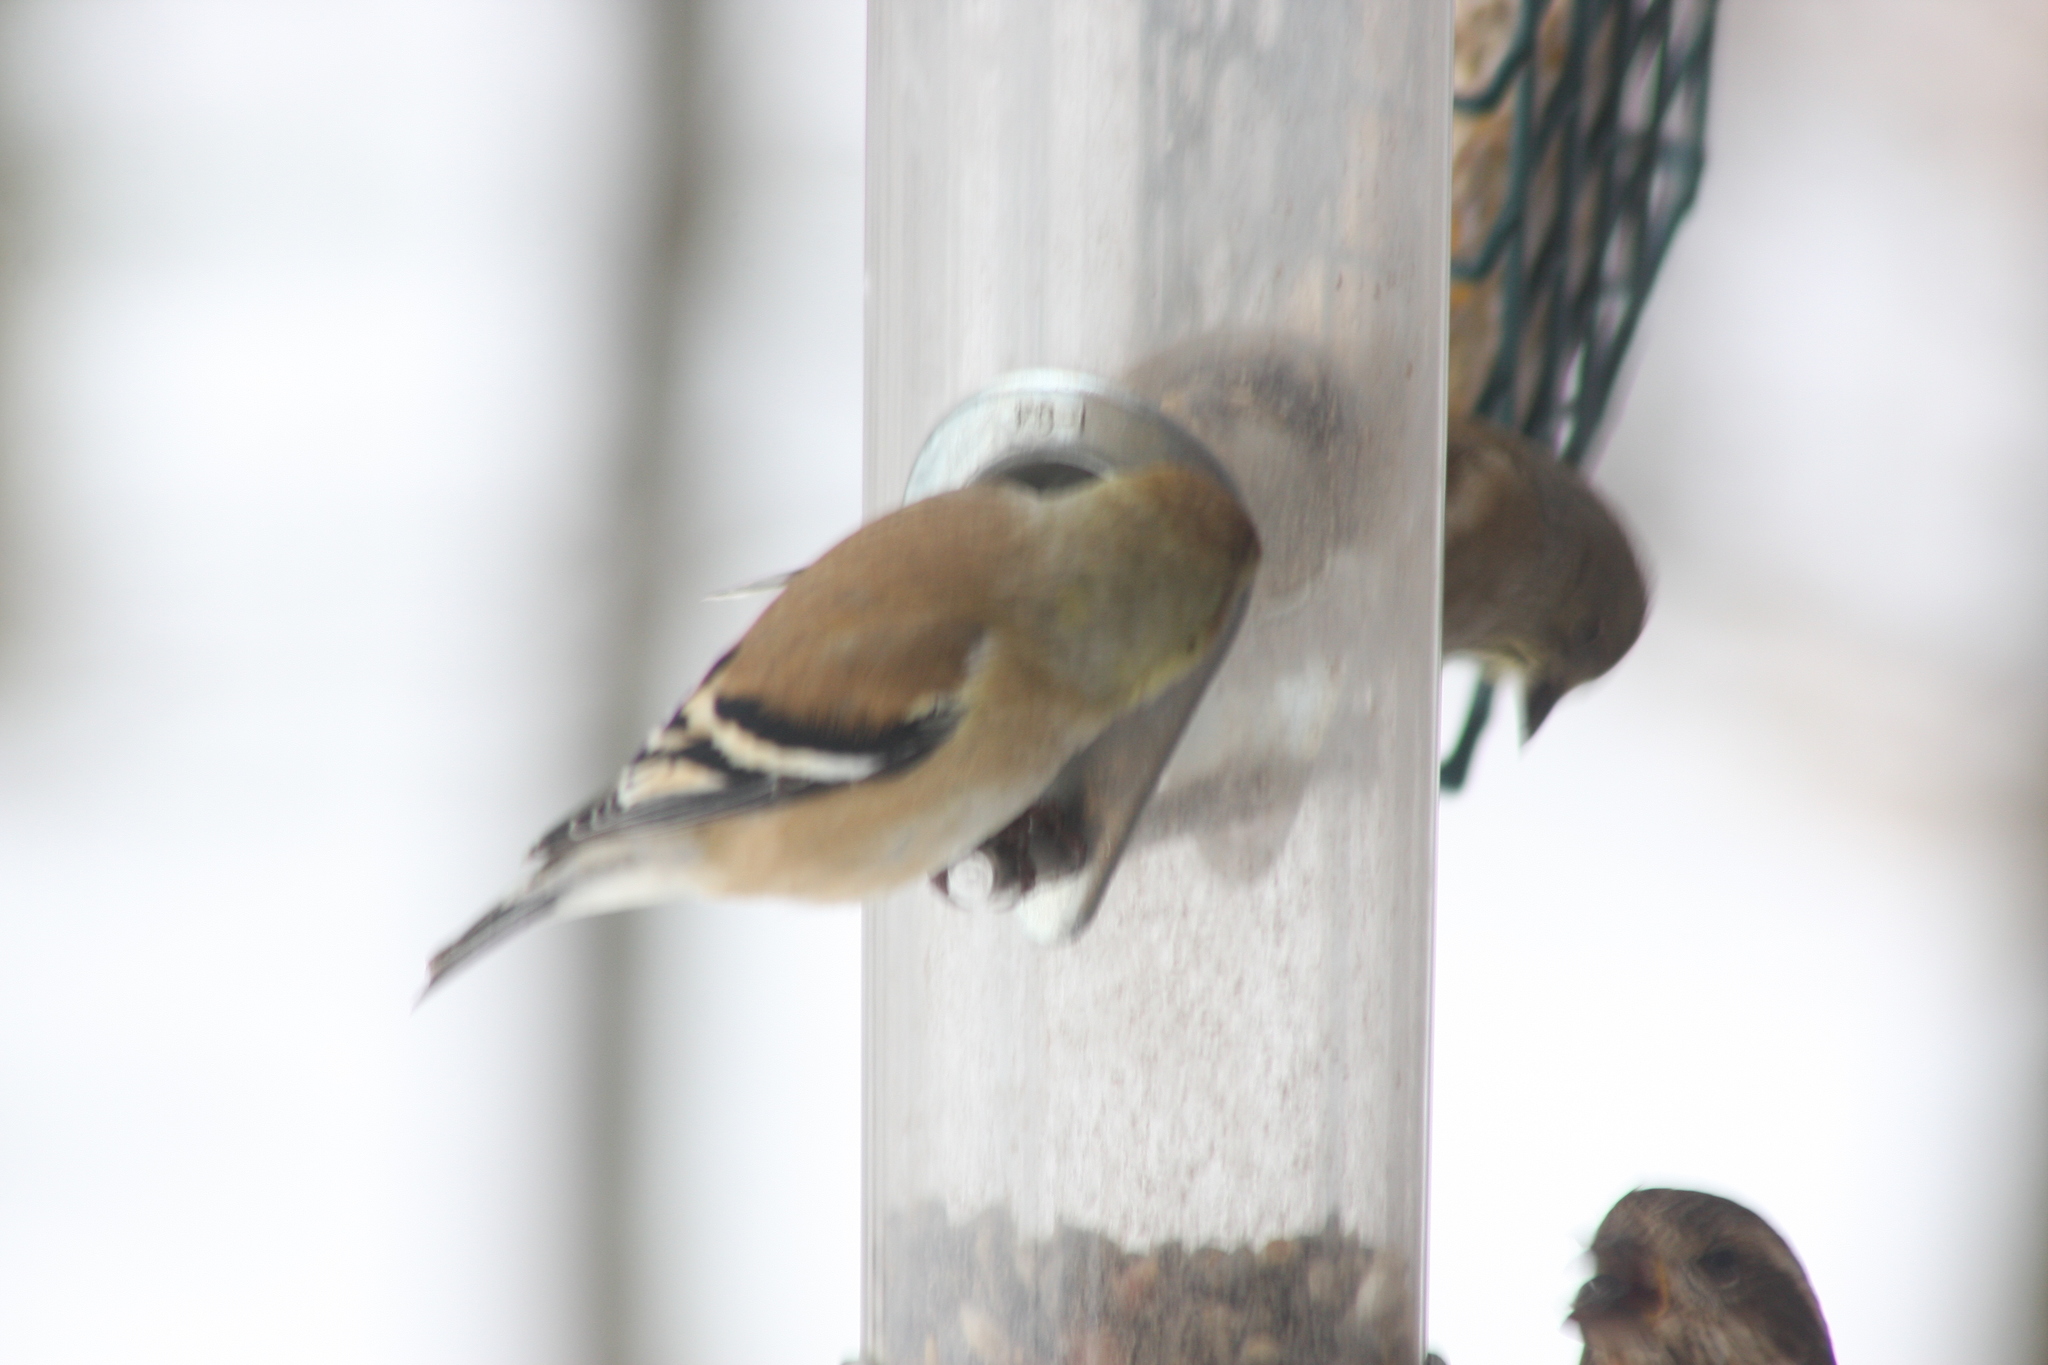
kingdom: Animalia
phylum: Chordata
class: Aves
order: Passeriformes
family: Fringillidae
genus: Spinus
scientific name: Spinus tristis
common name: American goldfinch
